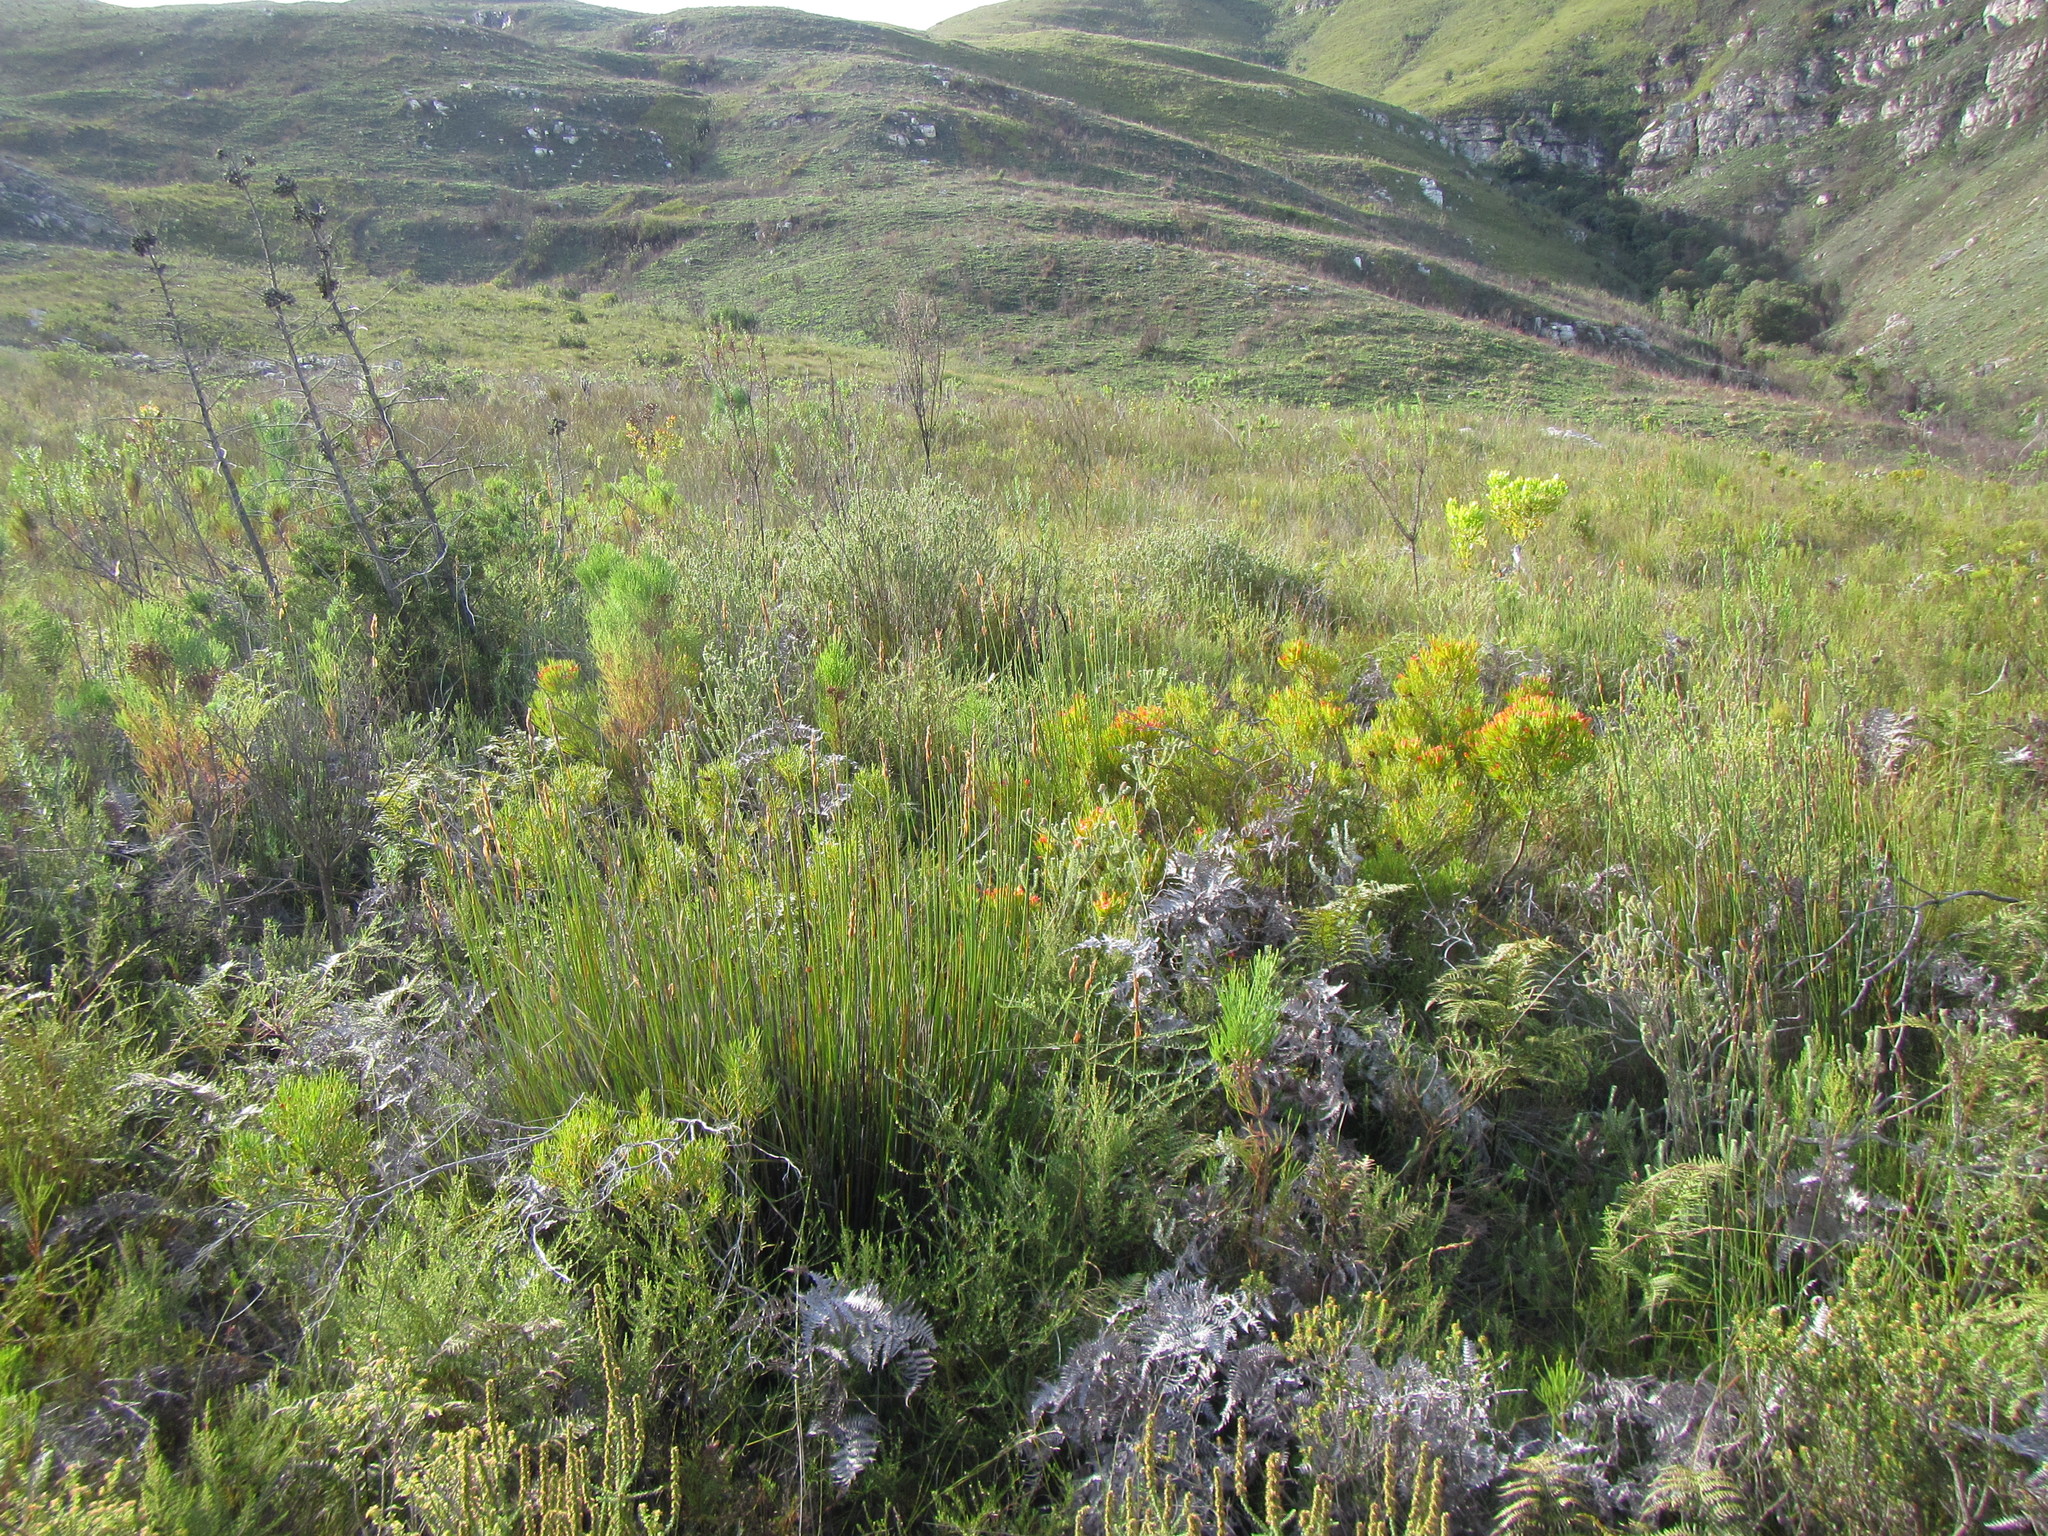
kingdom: Plantae
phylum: Tracheophyta
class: Magnoliopsida
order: Myrtales
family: Penaeaceae
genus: Endonema
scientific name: Endonema retzioides
